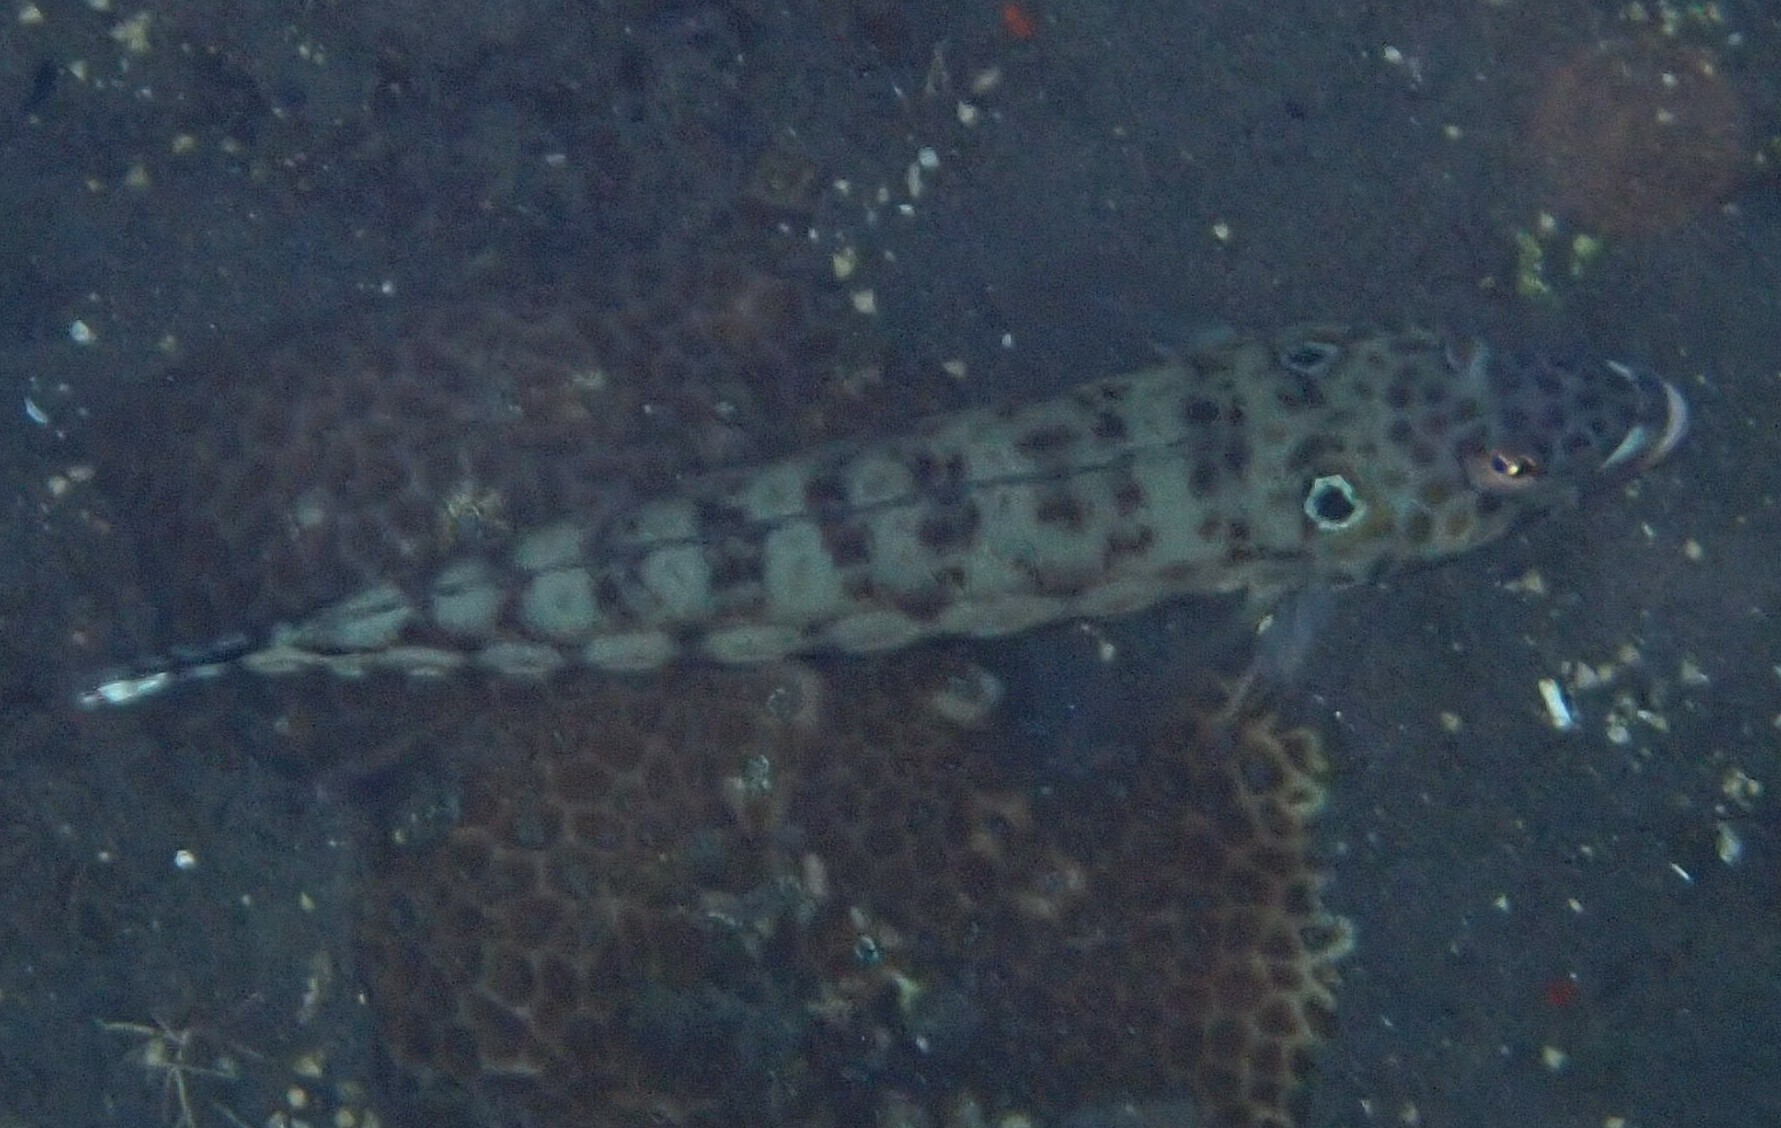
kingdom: Animalia
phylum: Chordata
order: Perciformes
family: Pinguipedidae
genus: Parapercis
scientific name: Parapercis clathrata
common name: Latticed sandperch
